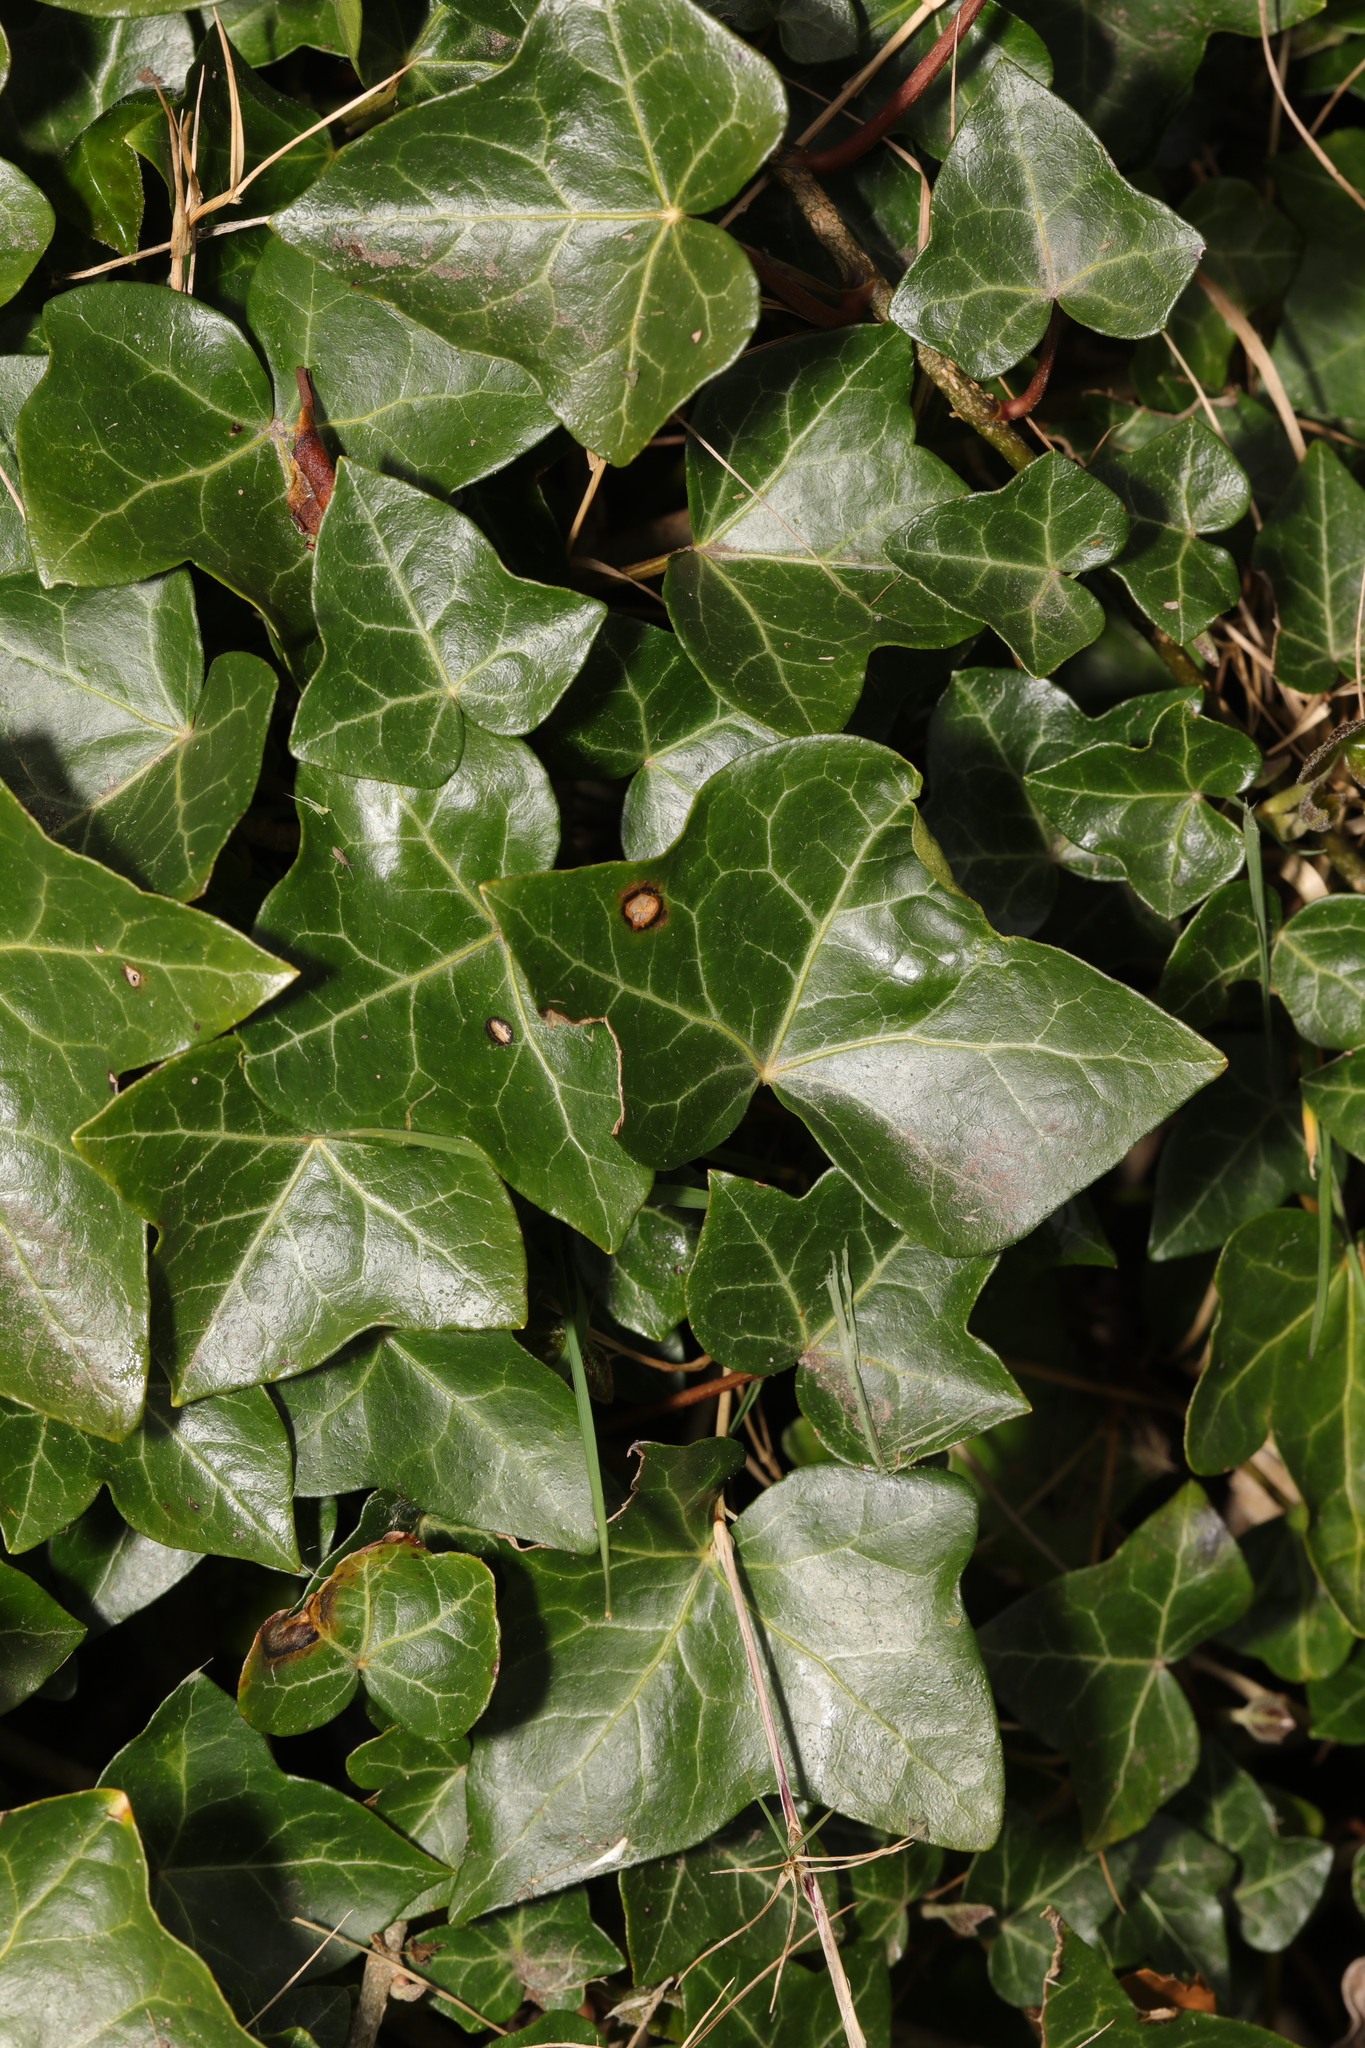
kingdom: Plantae
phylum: Tracheophyta
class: Magnoliopsida
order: Apiales
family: Araliaceae
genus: Hedera
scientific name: Hedera helix
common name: Ivy
